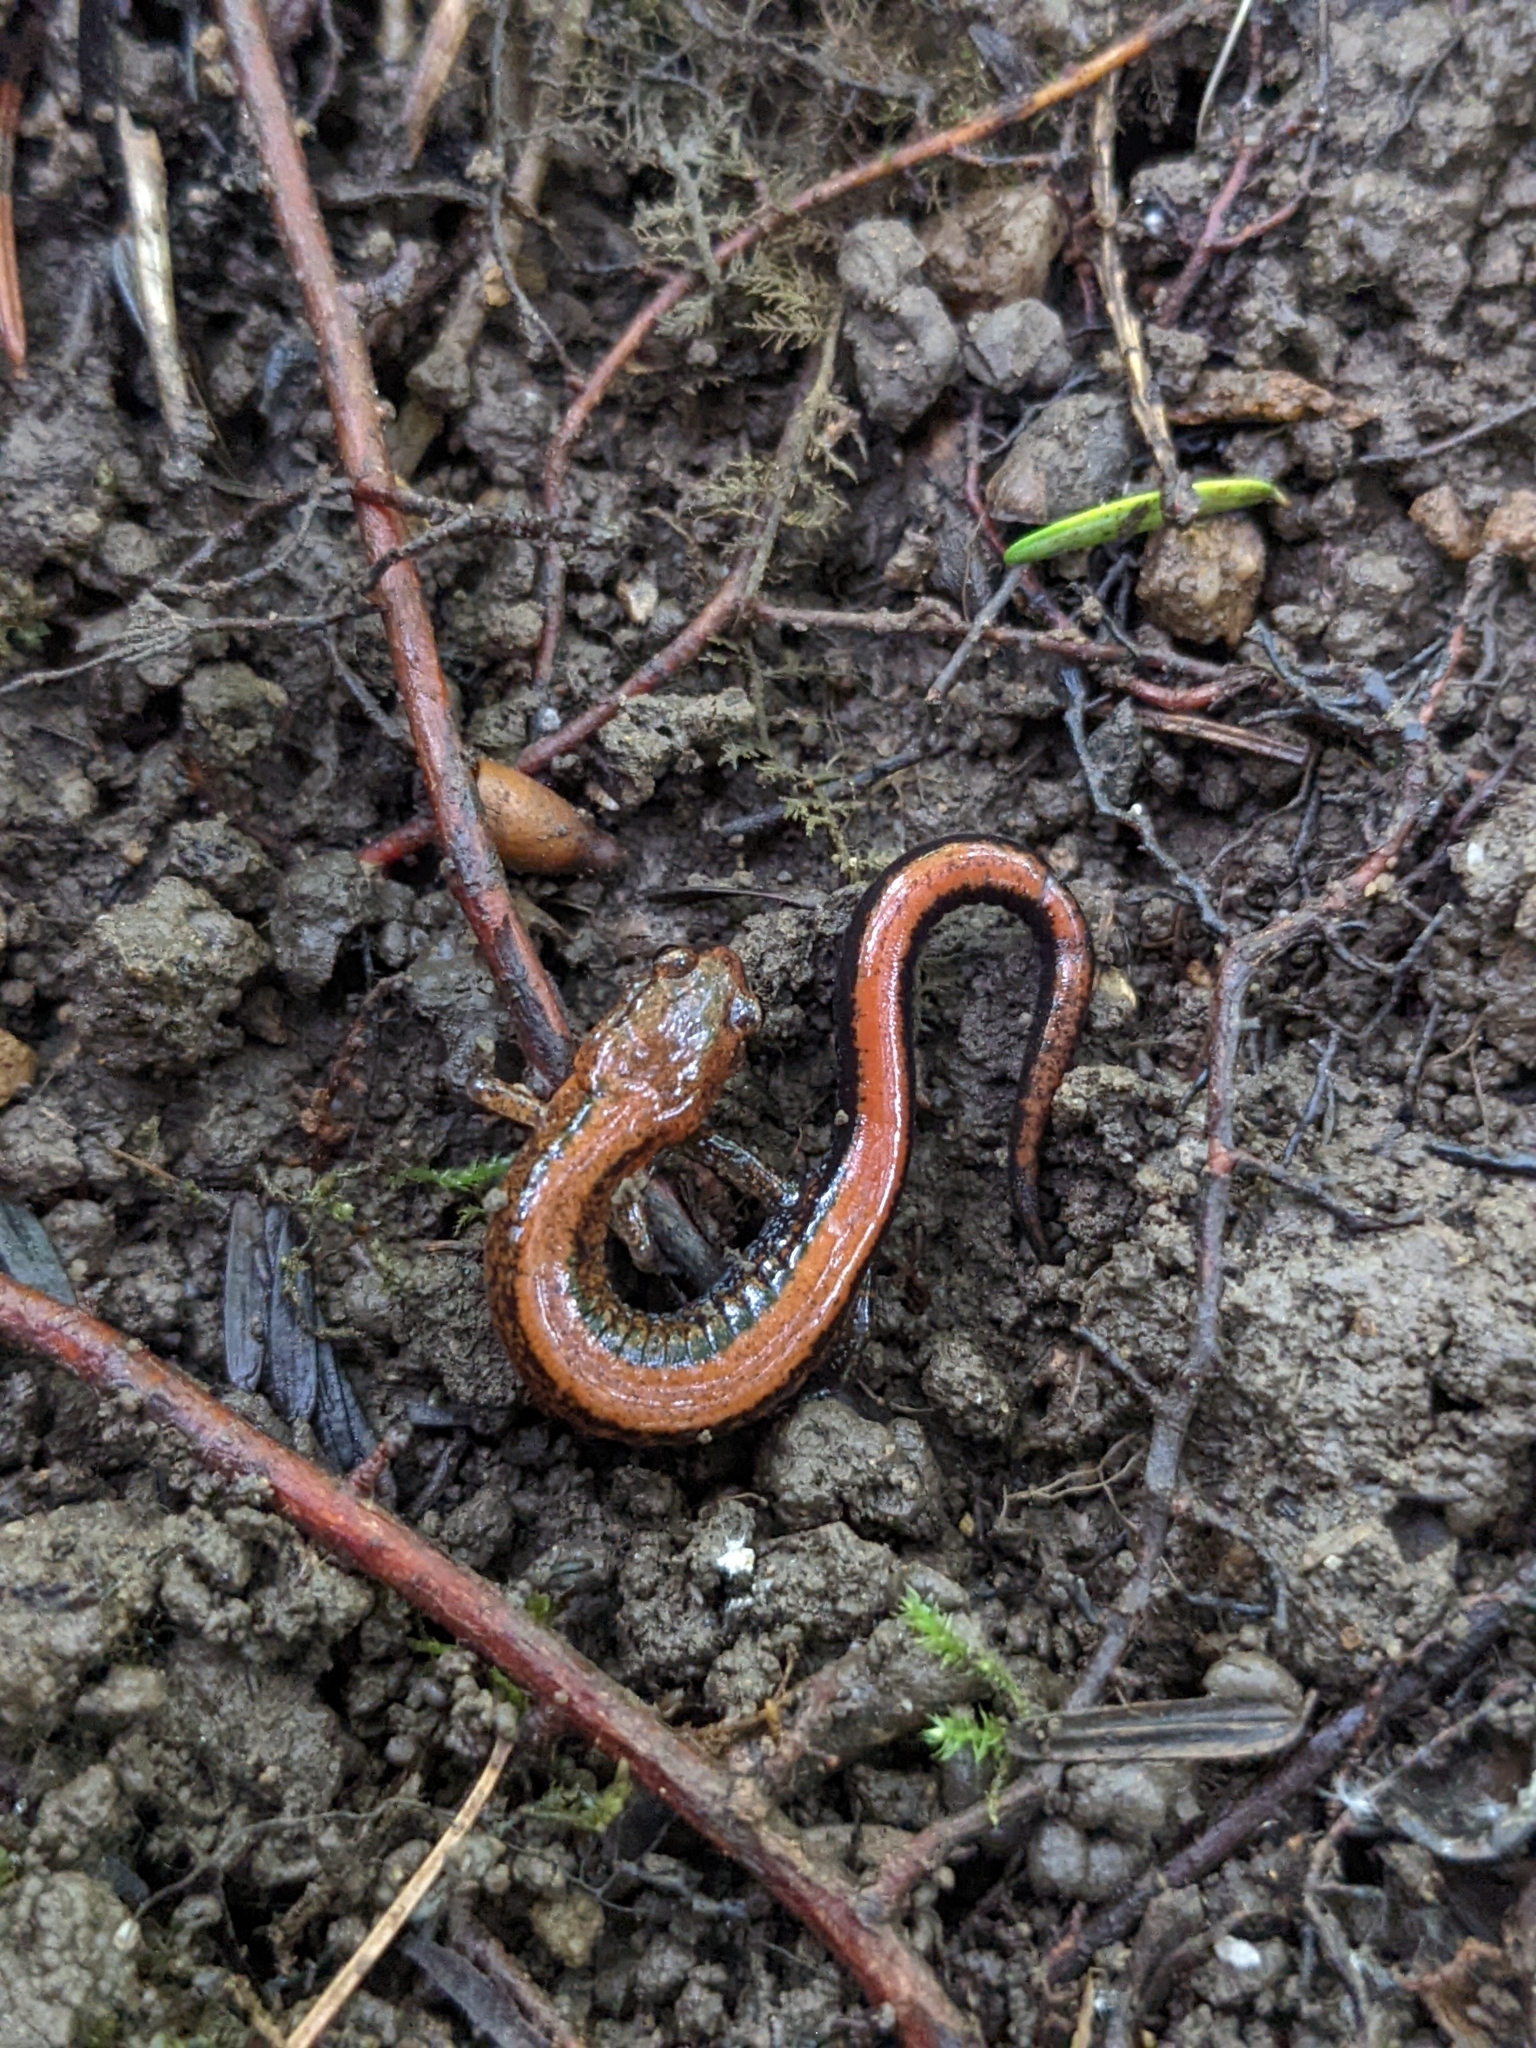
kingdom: Animalia
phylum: Chordata
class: Amphibia
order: Caudata
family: Plethodontidae
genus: Plethodon
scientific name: Plethodon cinereus
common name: Redback salamander
